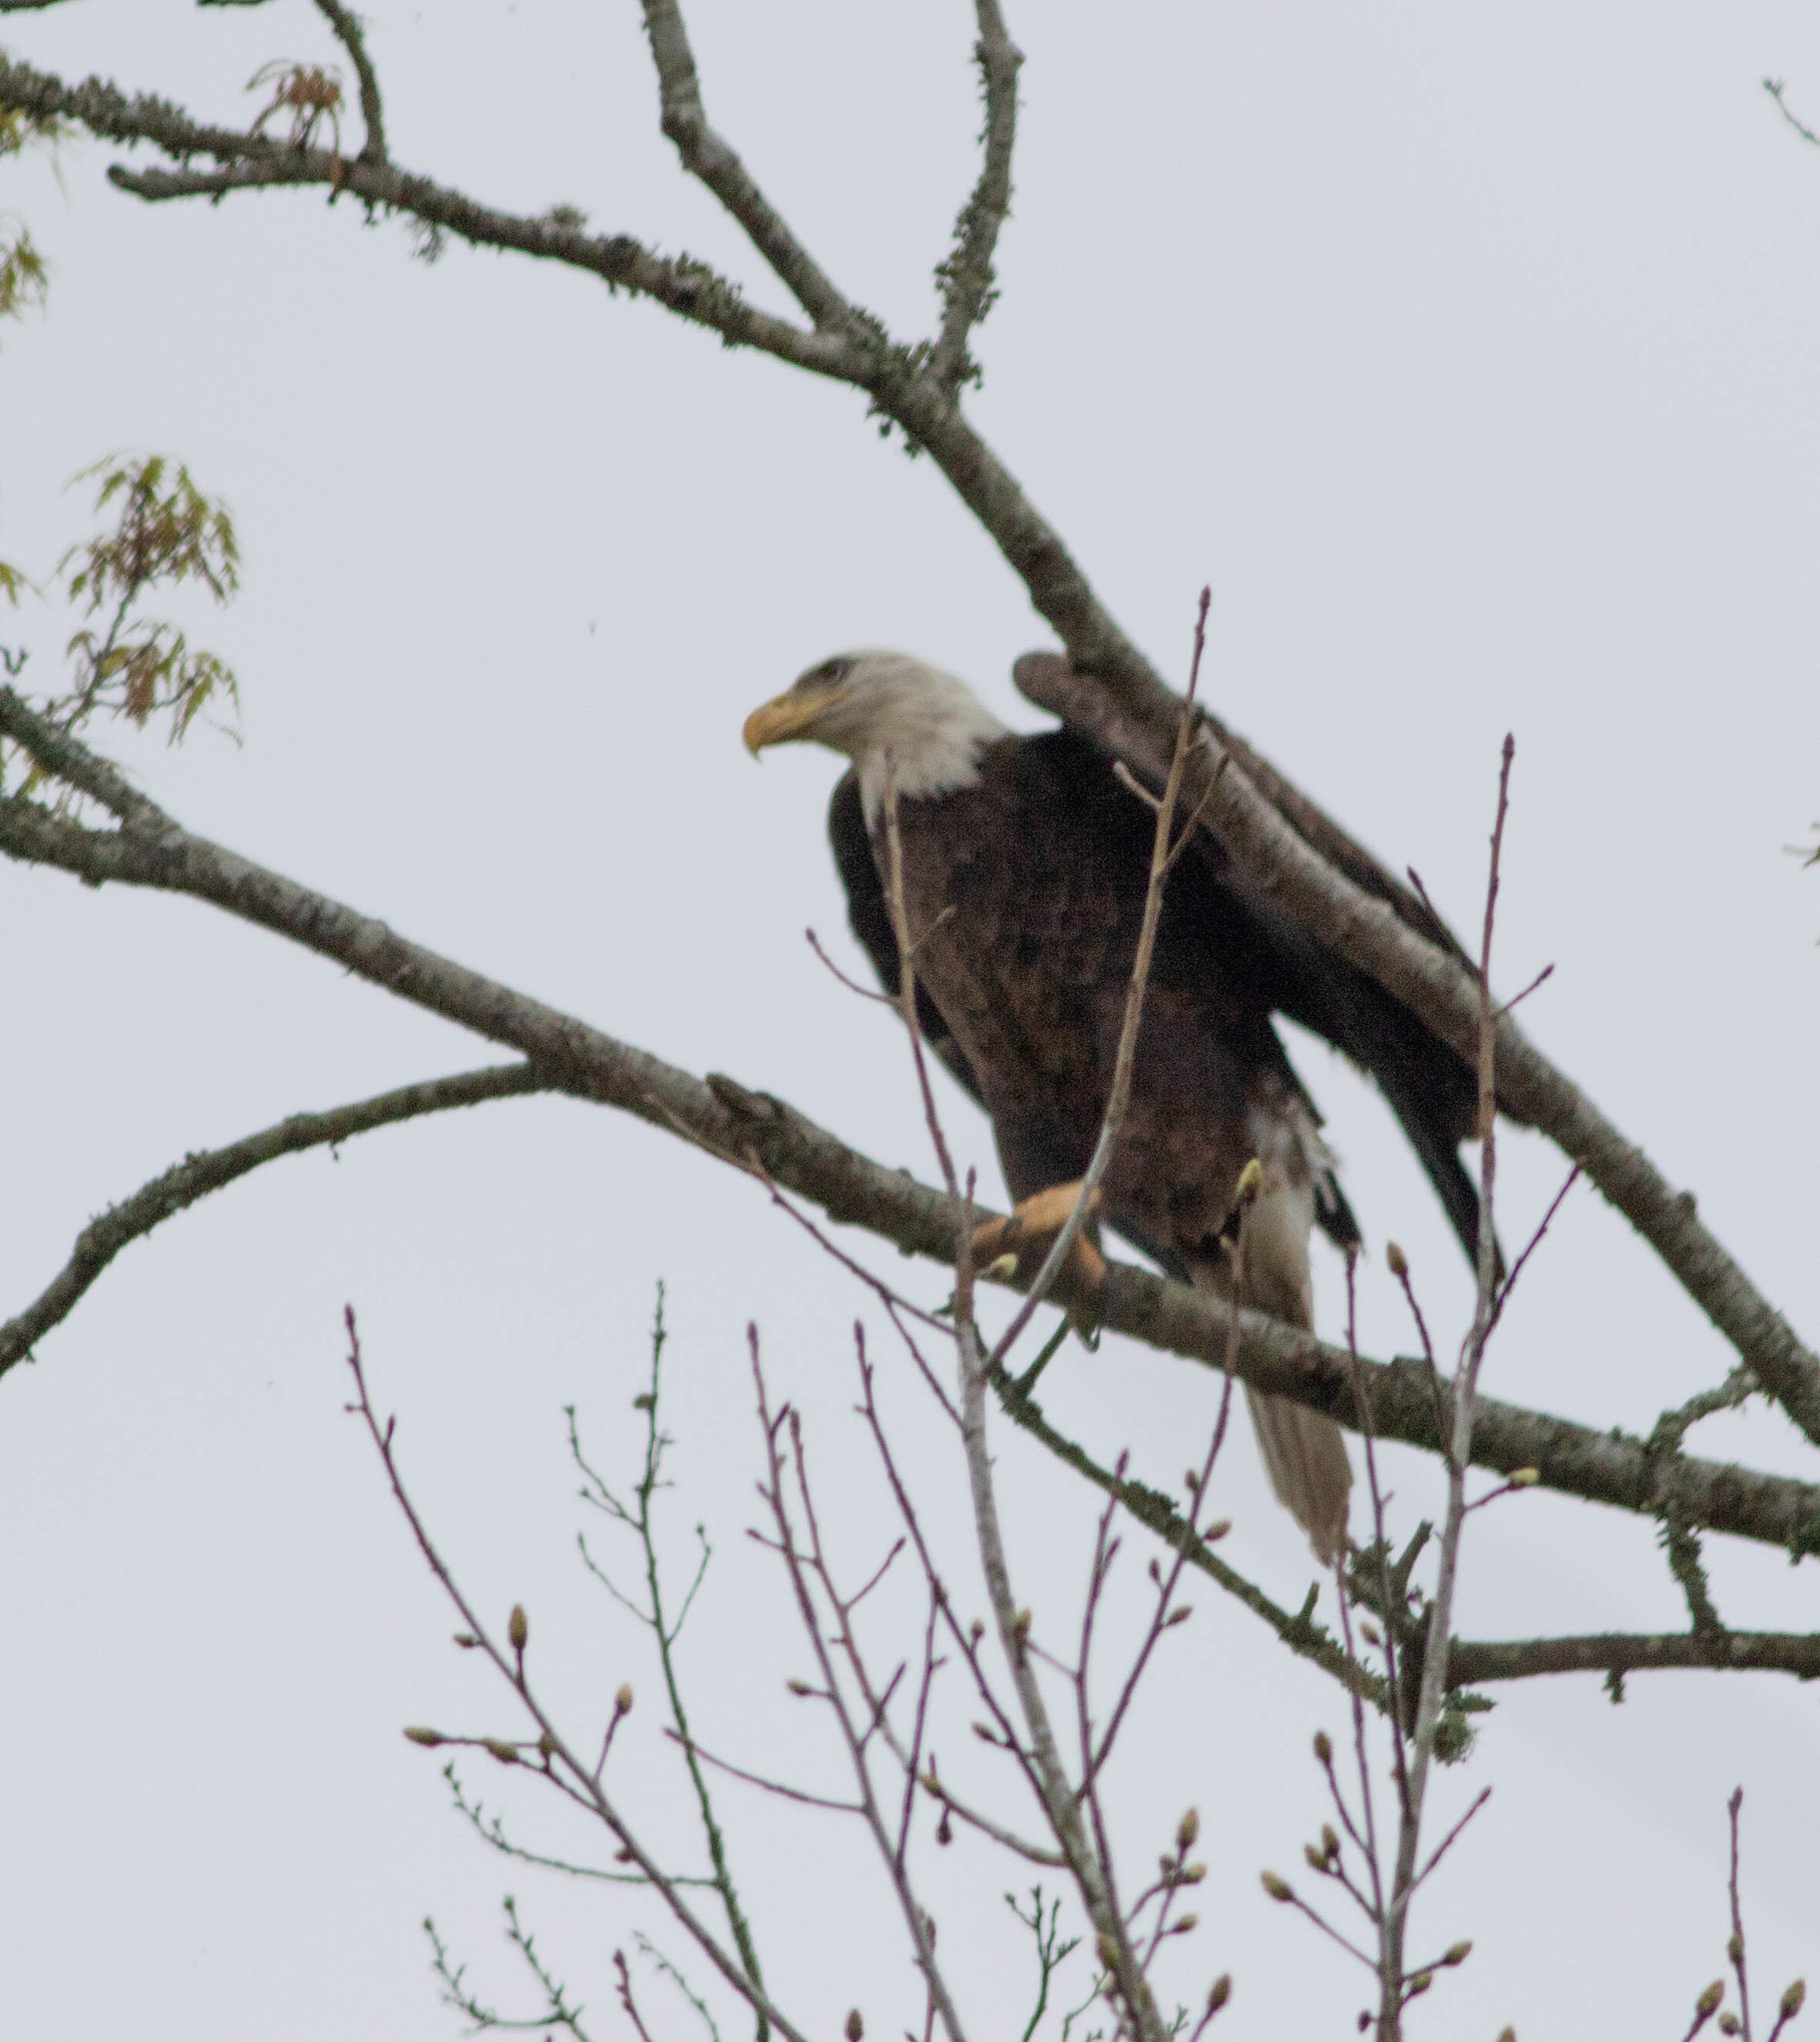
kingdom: Animalia
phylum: Chordata
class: Aves
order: Accipitriformes
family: Accipitridae
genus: Haliaeetus
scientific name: Haliaeetus leucocephalus
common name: Bald eagle
